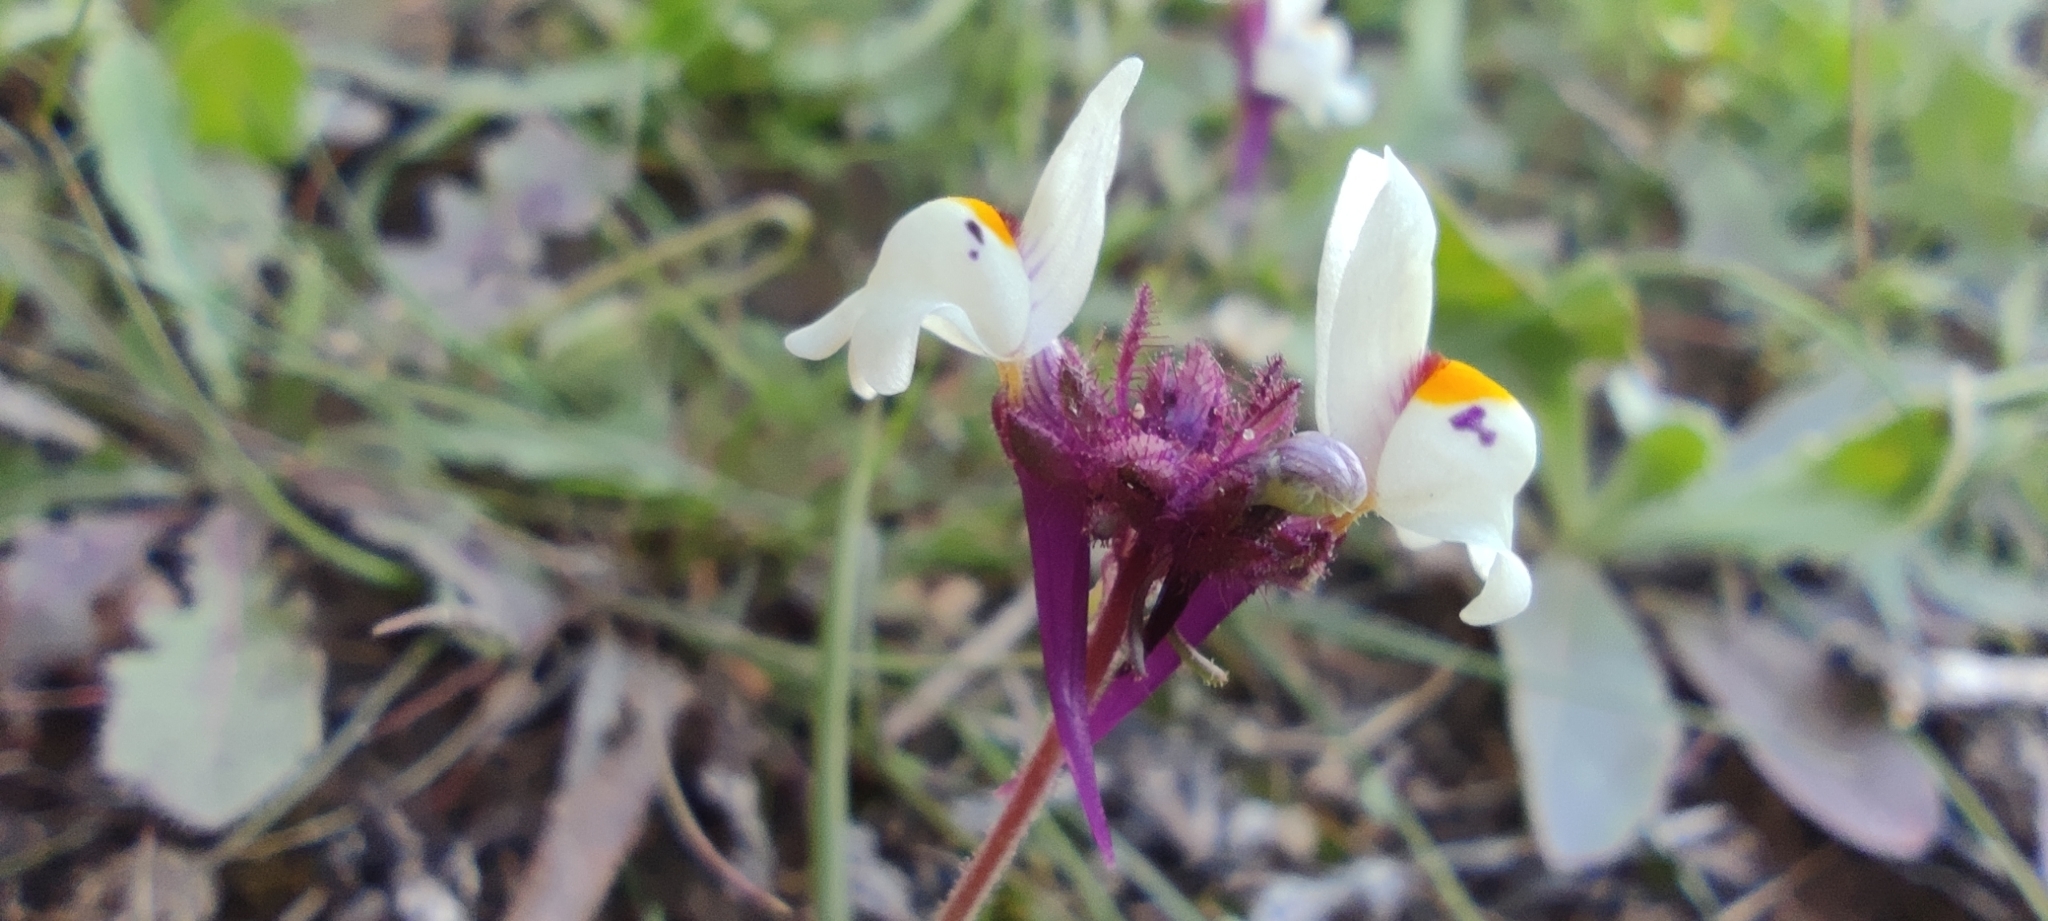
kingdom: Plantae
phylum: Tracheophyta
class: Magnoliopsida
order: Lamiales
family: Plantaginaceae
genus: Linaria
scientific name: Linaria amethystea
